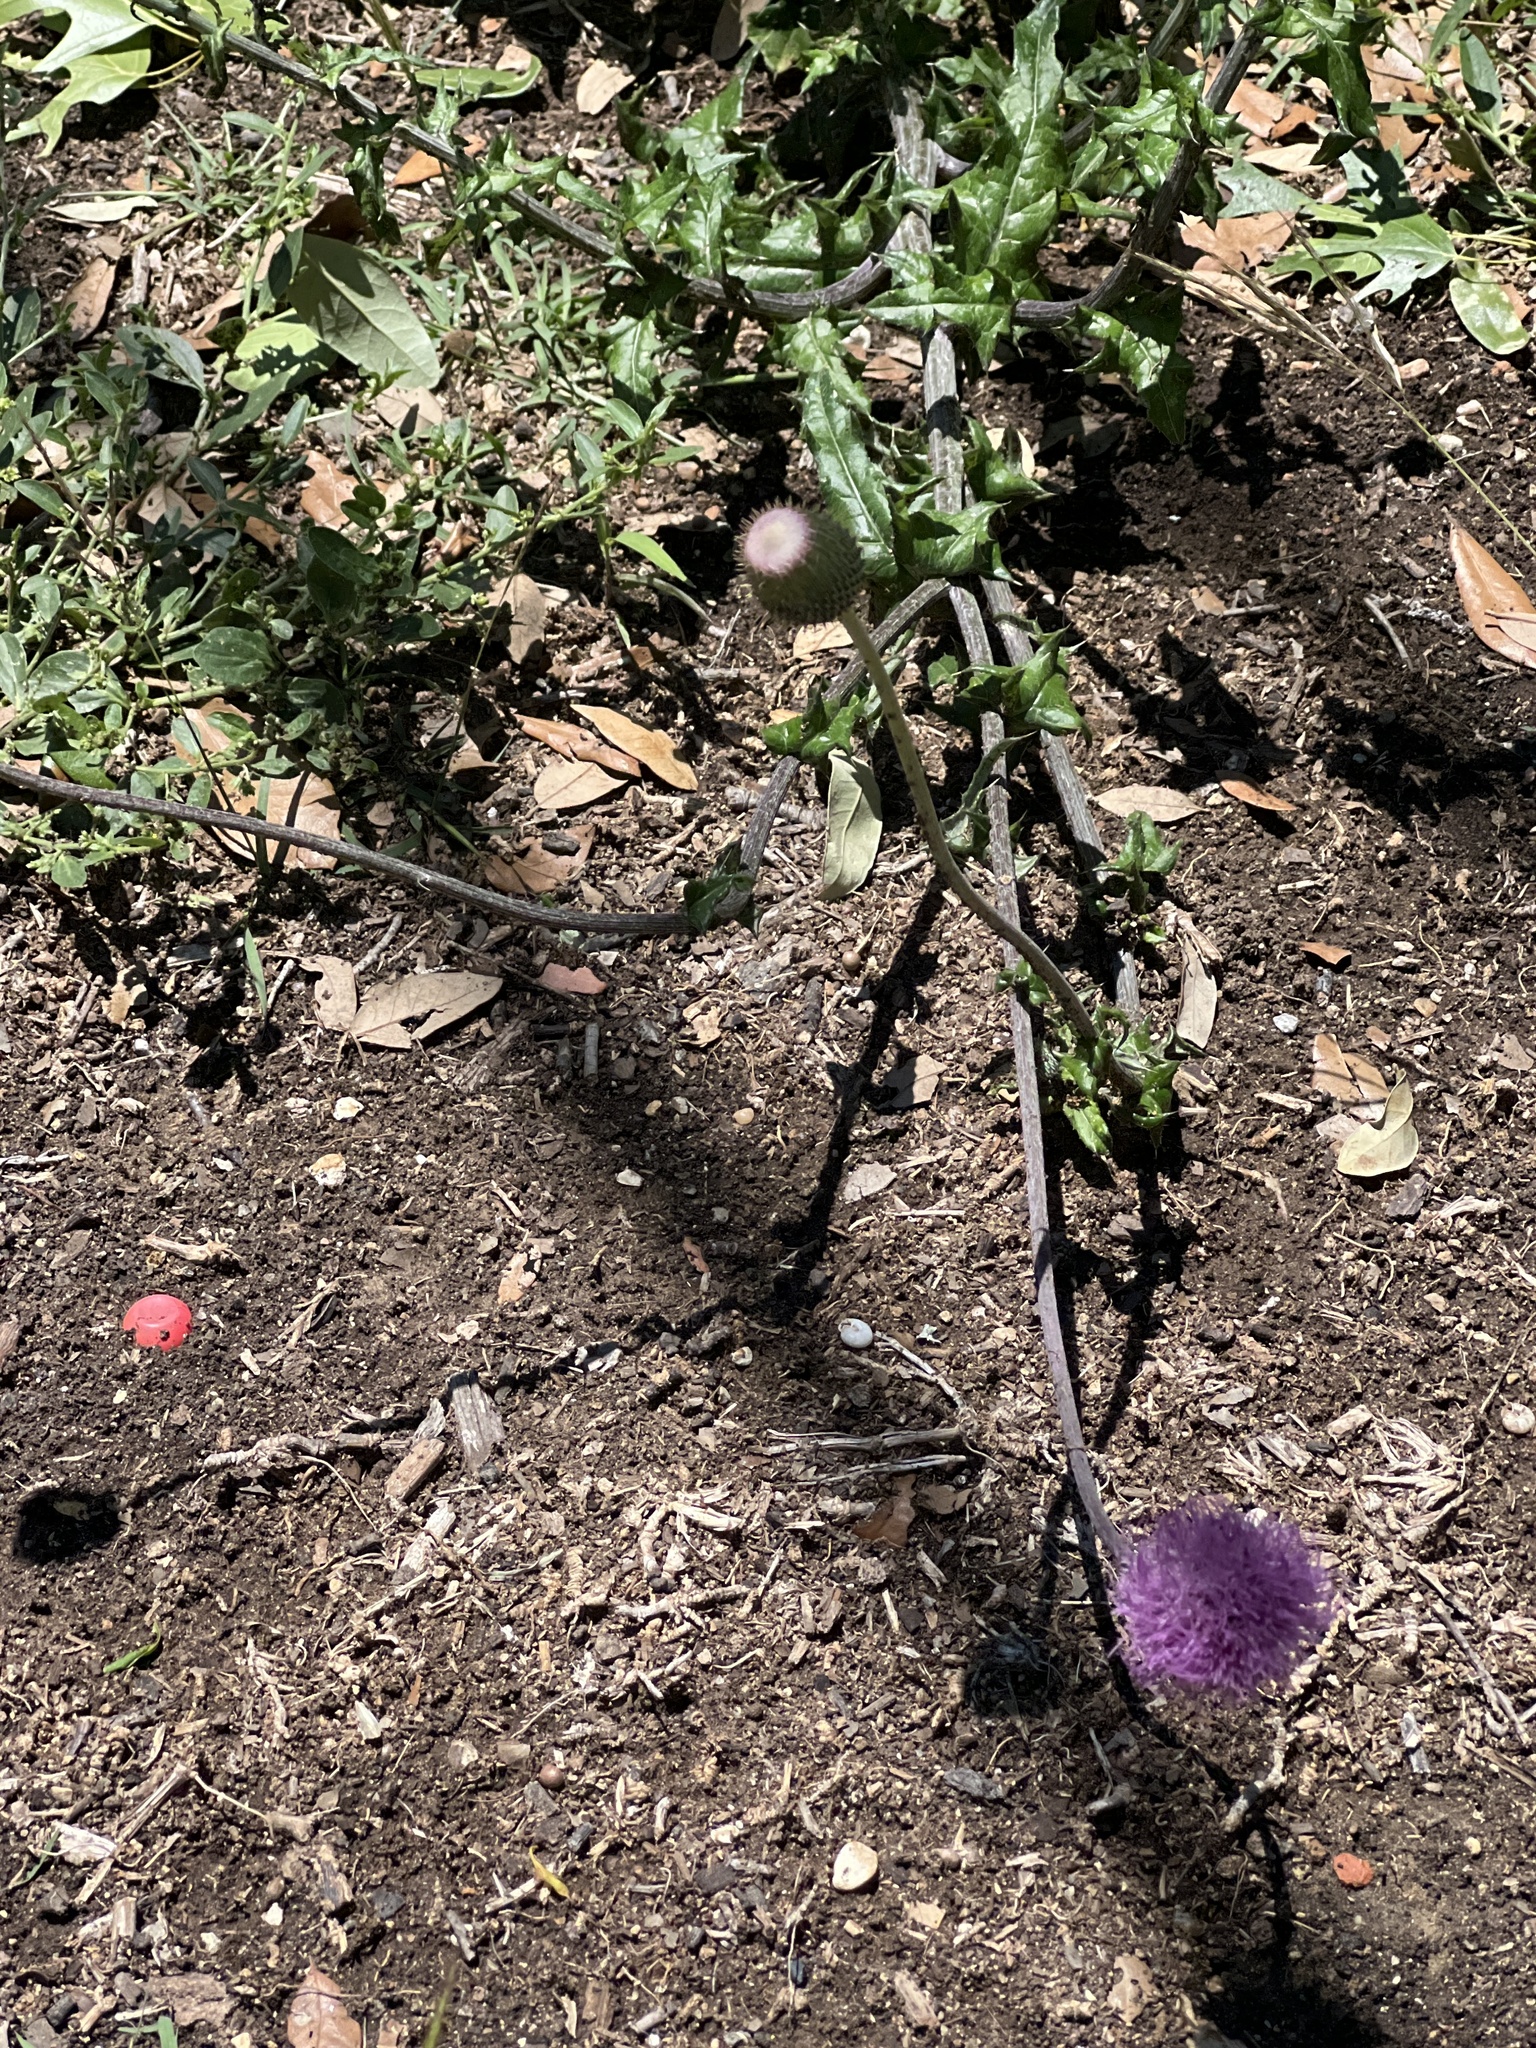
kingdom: Plantae
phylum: Tracheophyta
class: Magnoliopsida
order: Asterales
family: Asteraceae
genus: Cirsium
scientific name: Cirsium texanum
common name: Texas purple thistle
